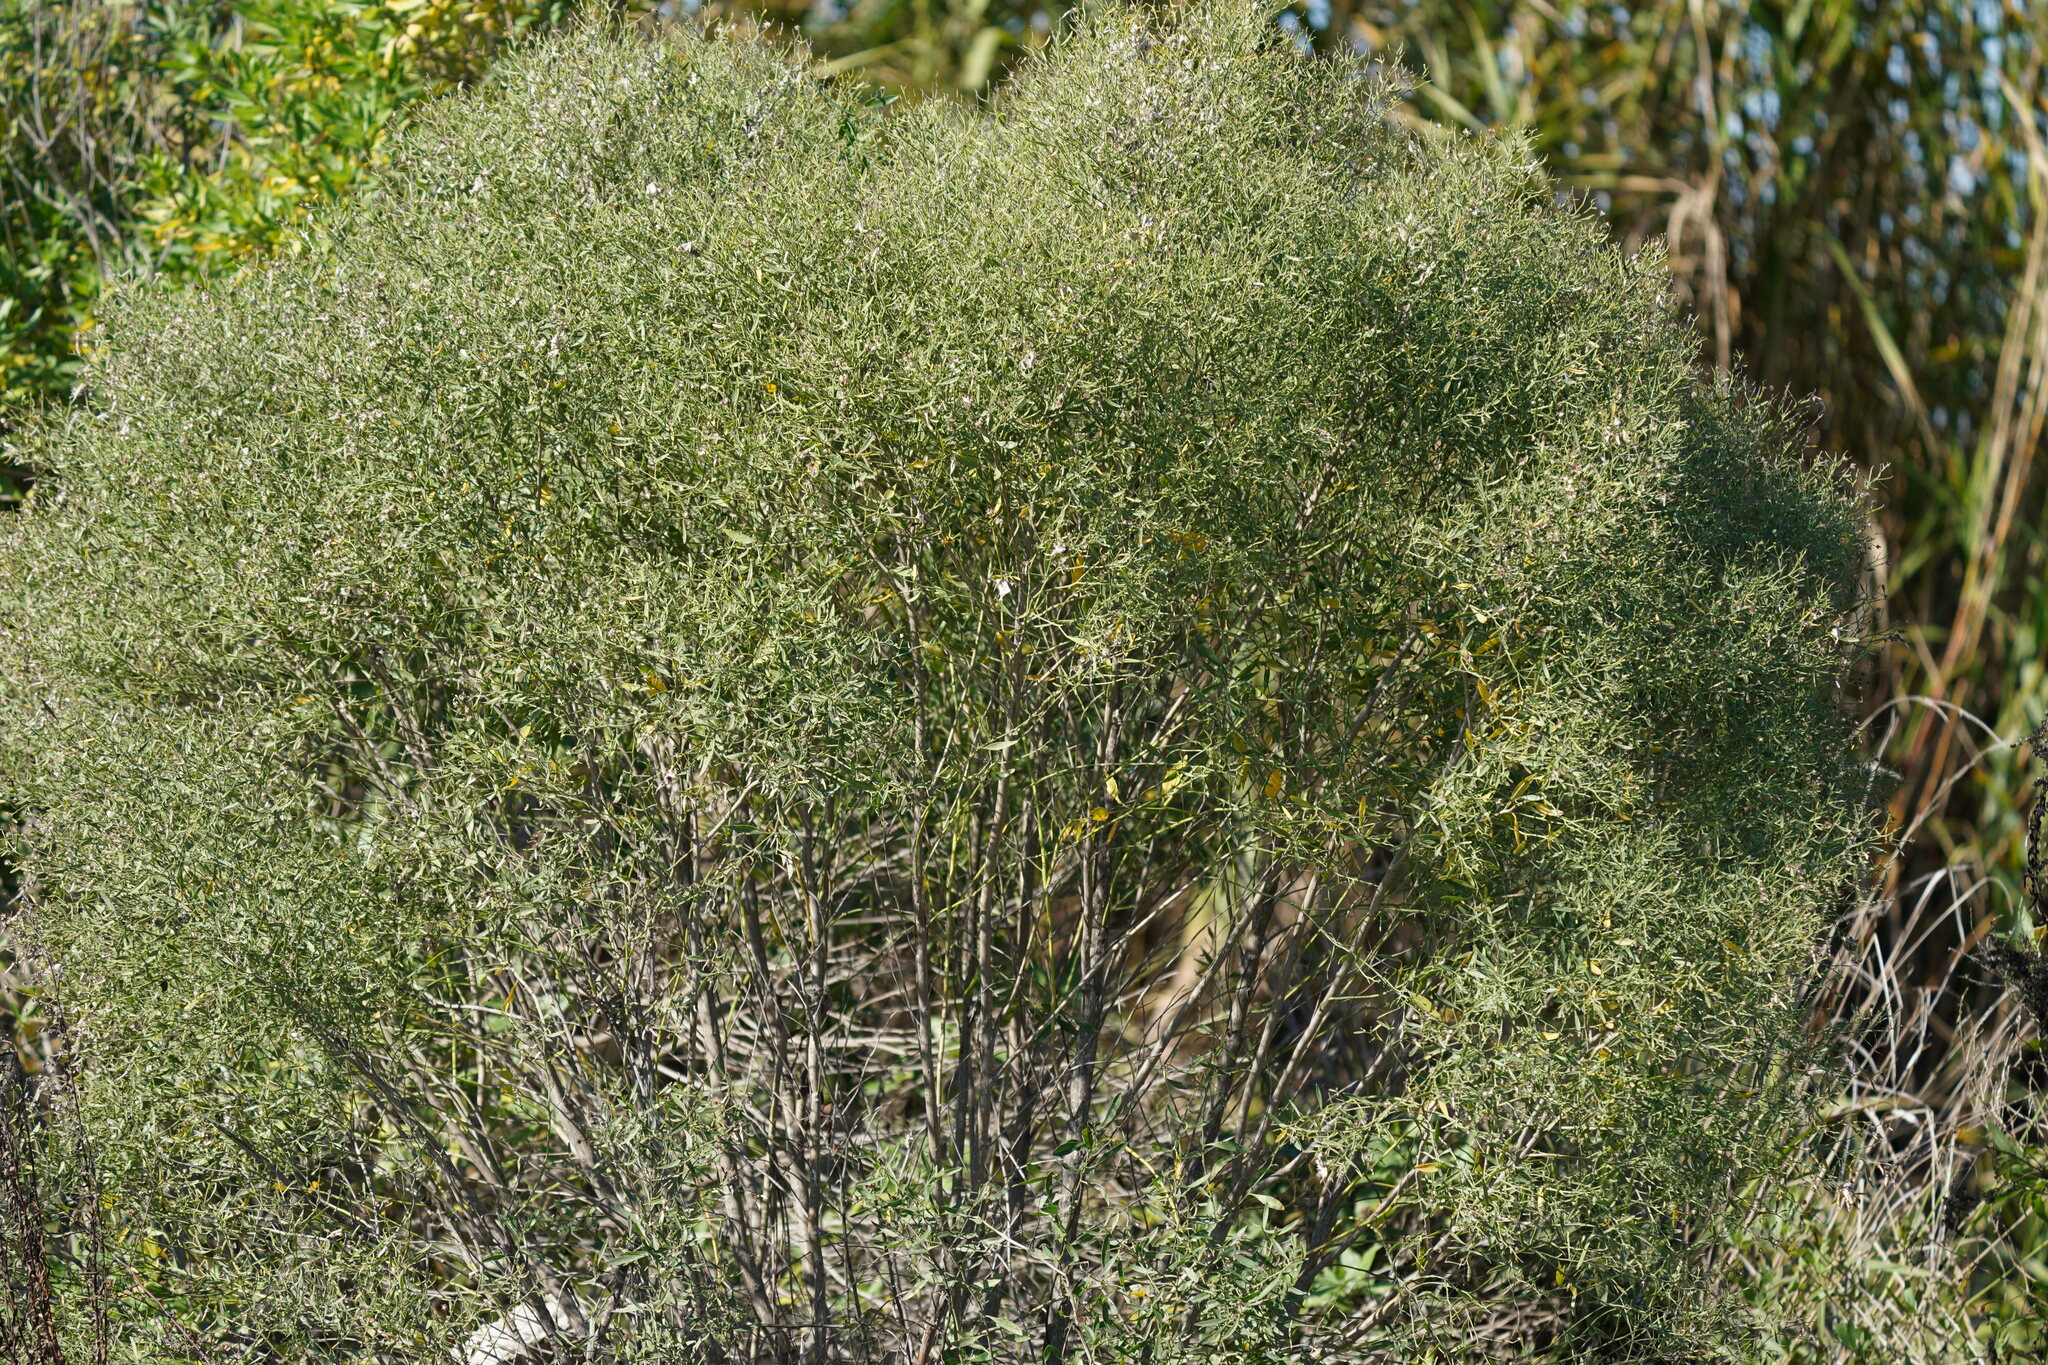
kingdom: Plantae
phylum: Tracheophyta
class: Magnoliopsida
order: Asterales
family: Asteraceae
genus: Baccharis
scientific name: Baccharis halimifolia
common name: Eastern baccharis
